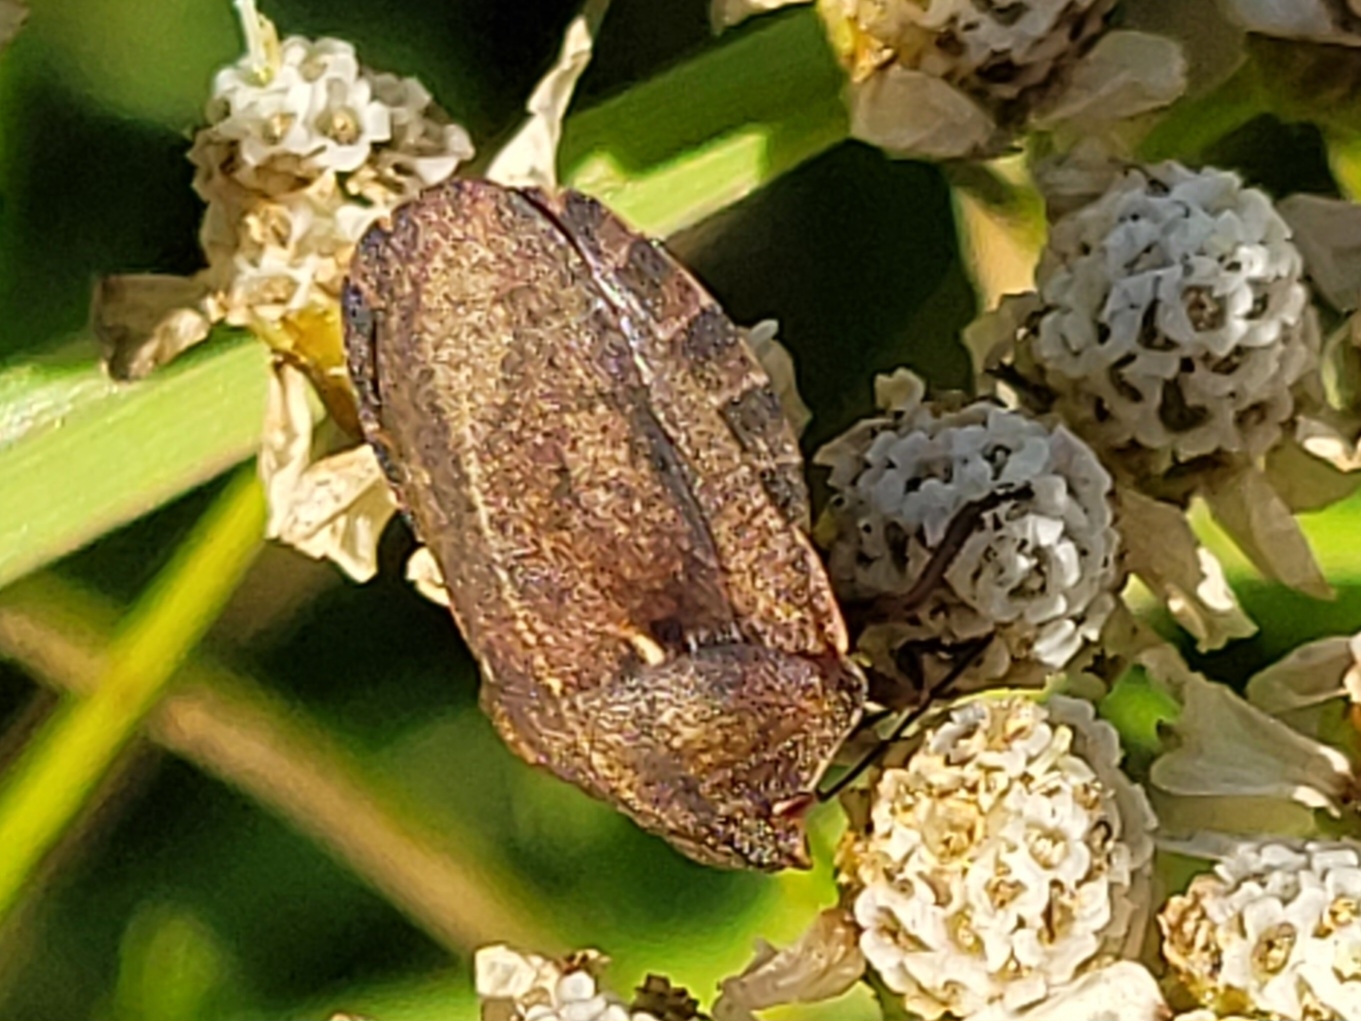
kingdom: Animalia
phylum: Arthropoda
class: Insecta
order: Hemiptera
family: Scutelleridae
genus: Eurygaster
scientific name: Eurygaster testudinaria
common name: Tortoise bug
